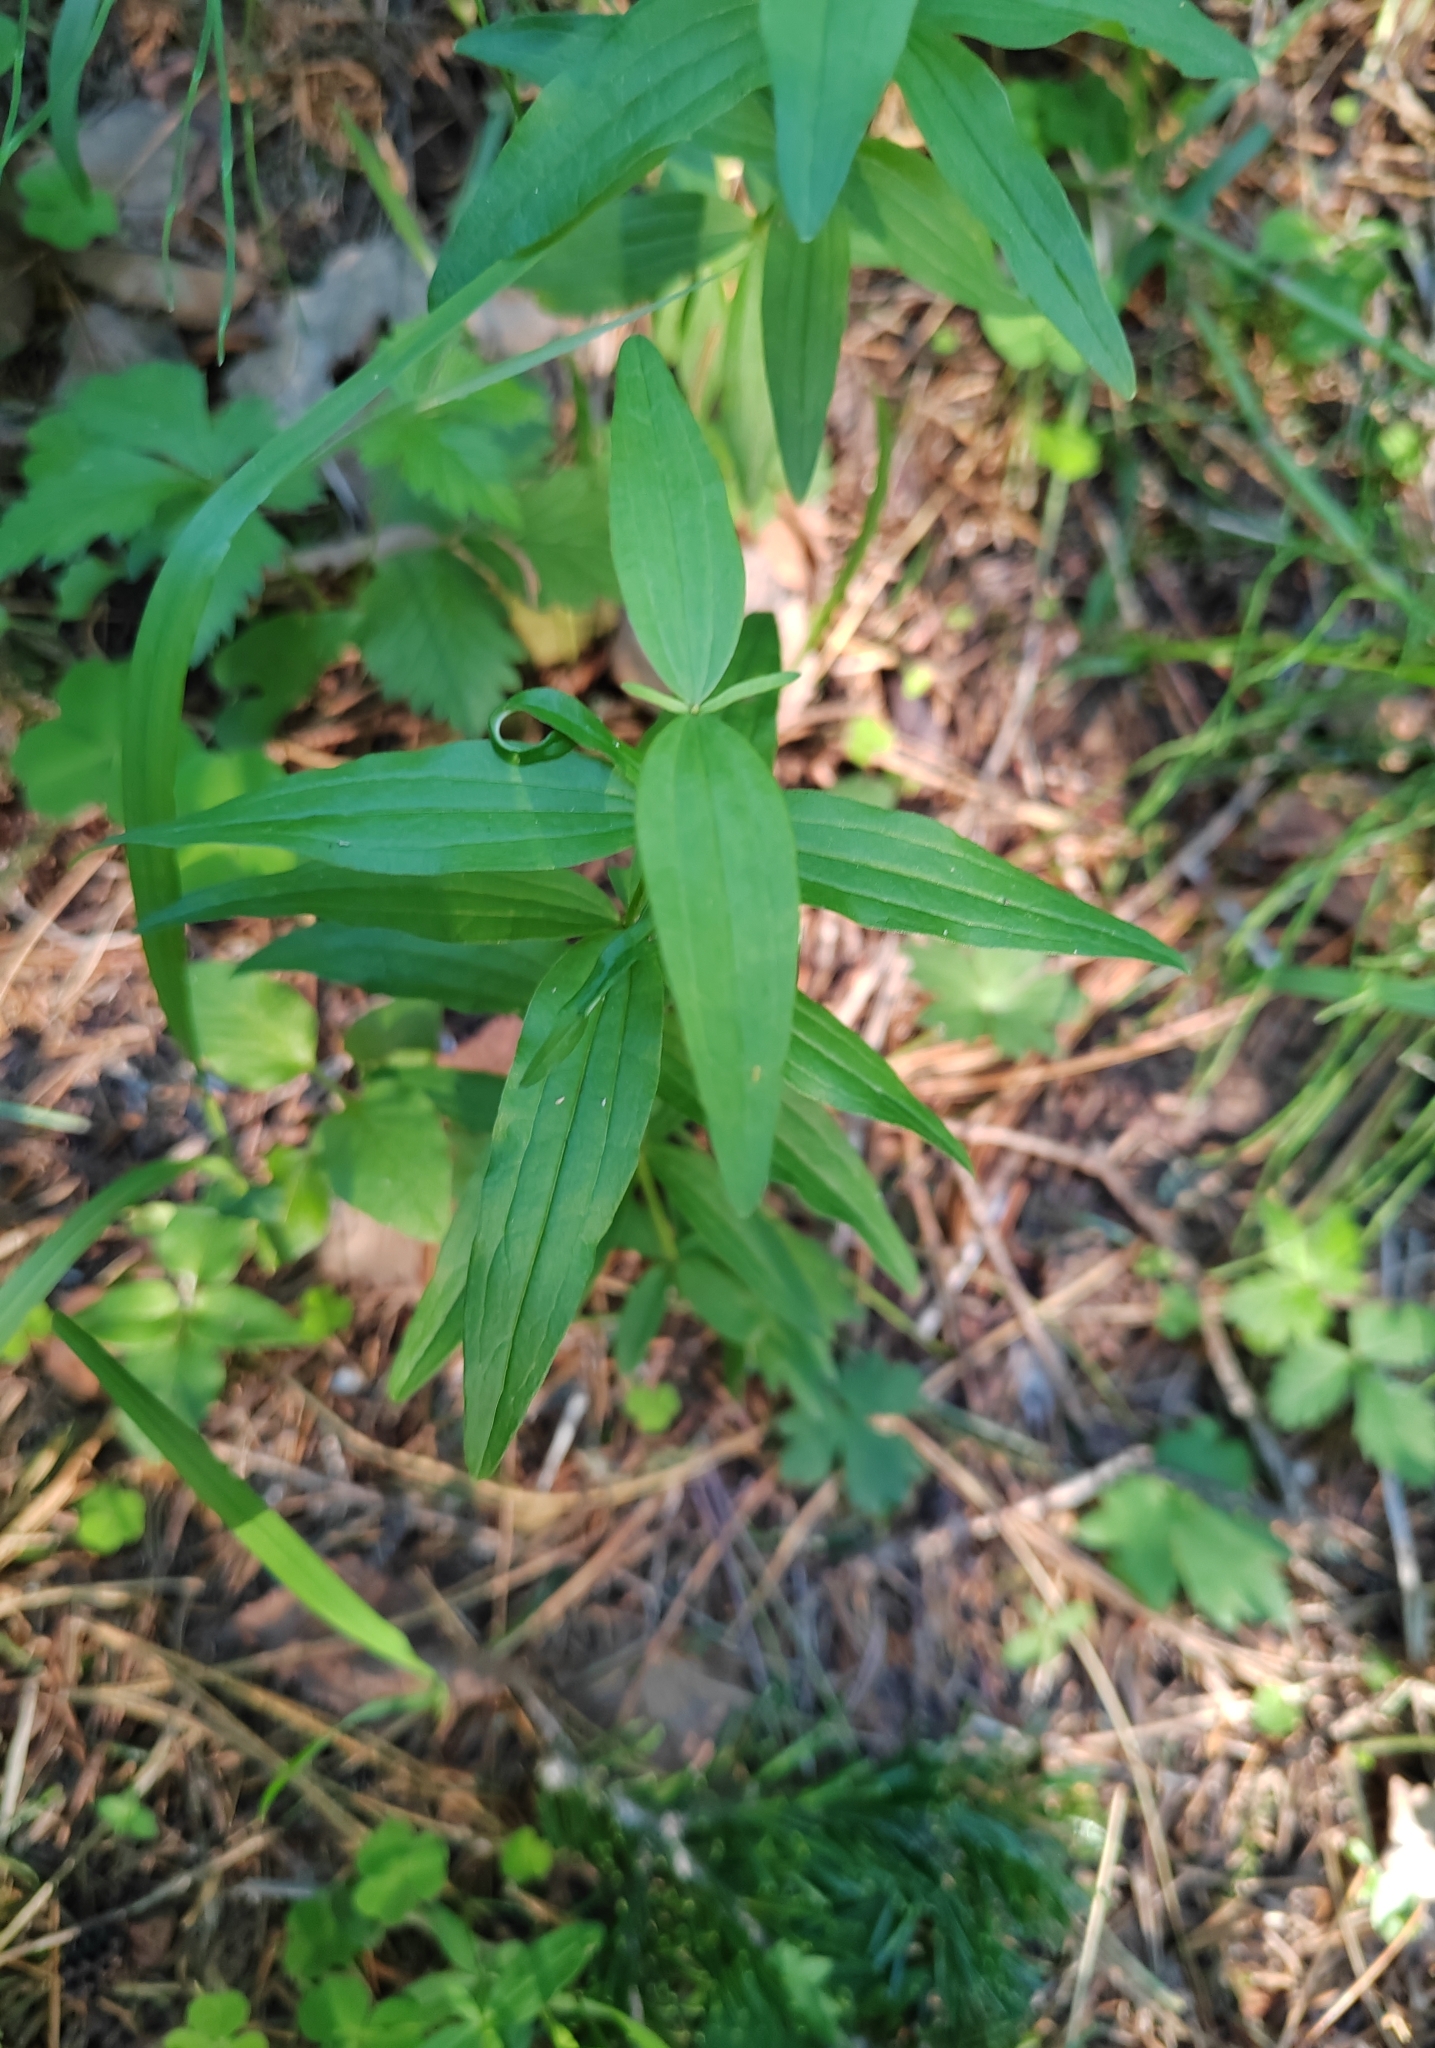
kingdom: Plantae
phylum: Tracheophyta
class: Magnoliopsida
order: Gentianales
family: Rubiaceae
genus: Galium
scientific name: Galium pseudoboreale
